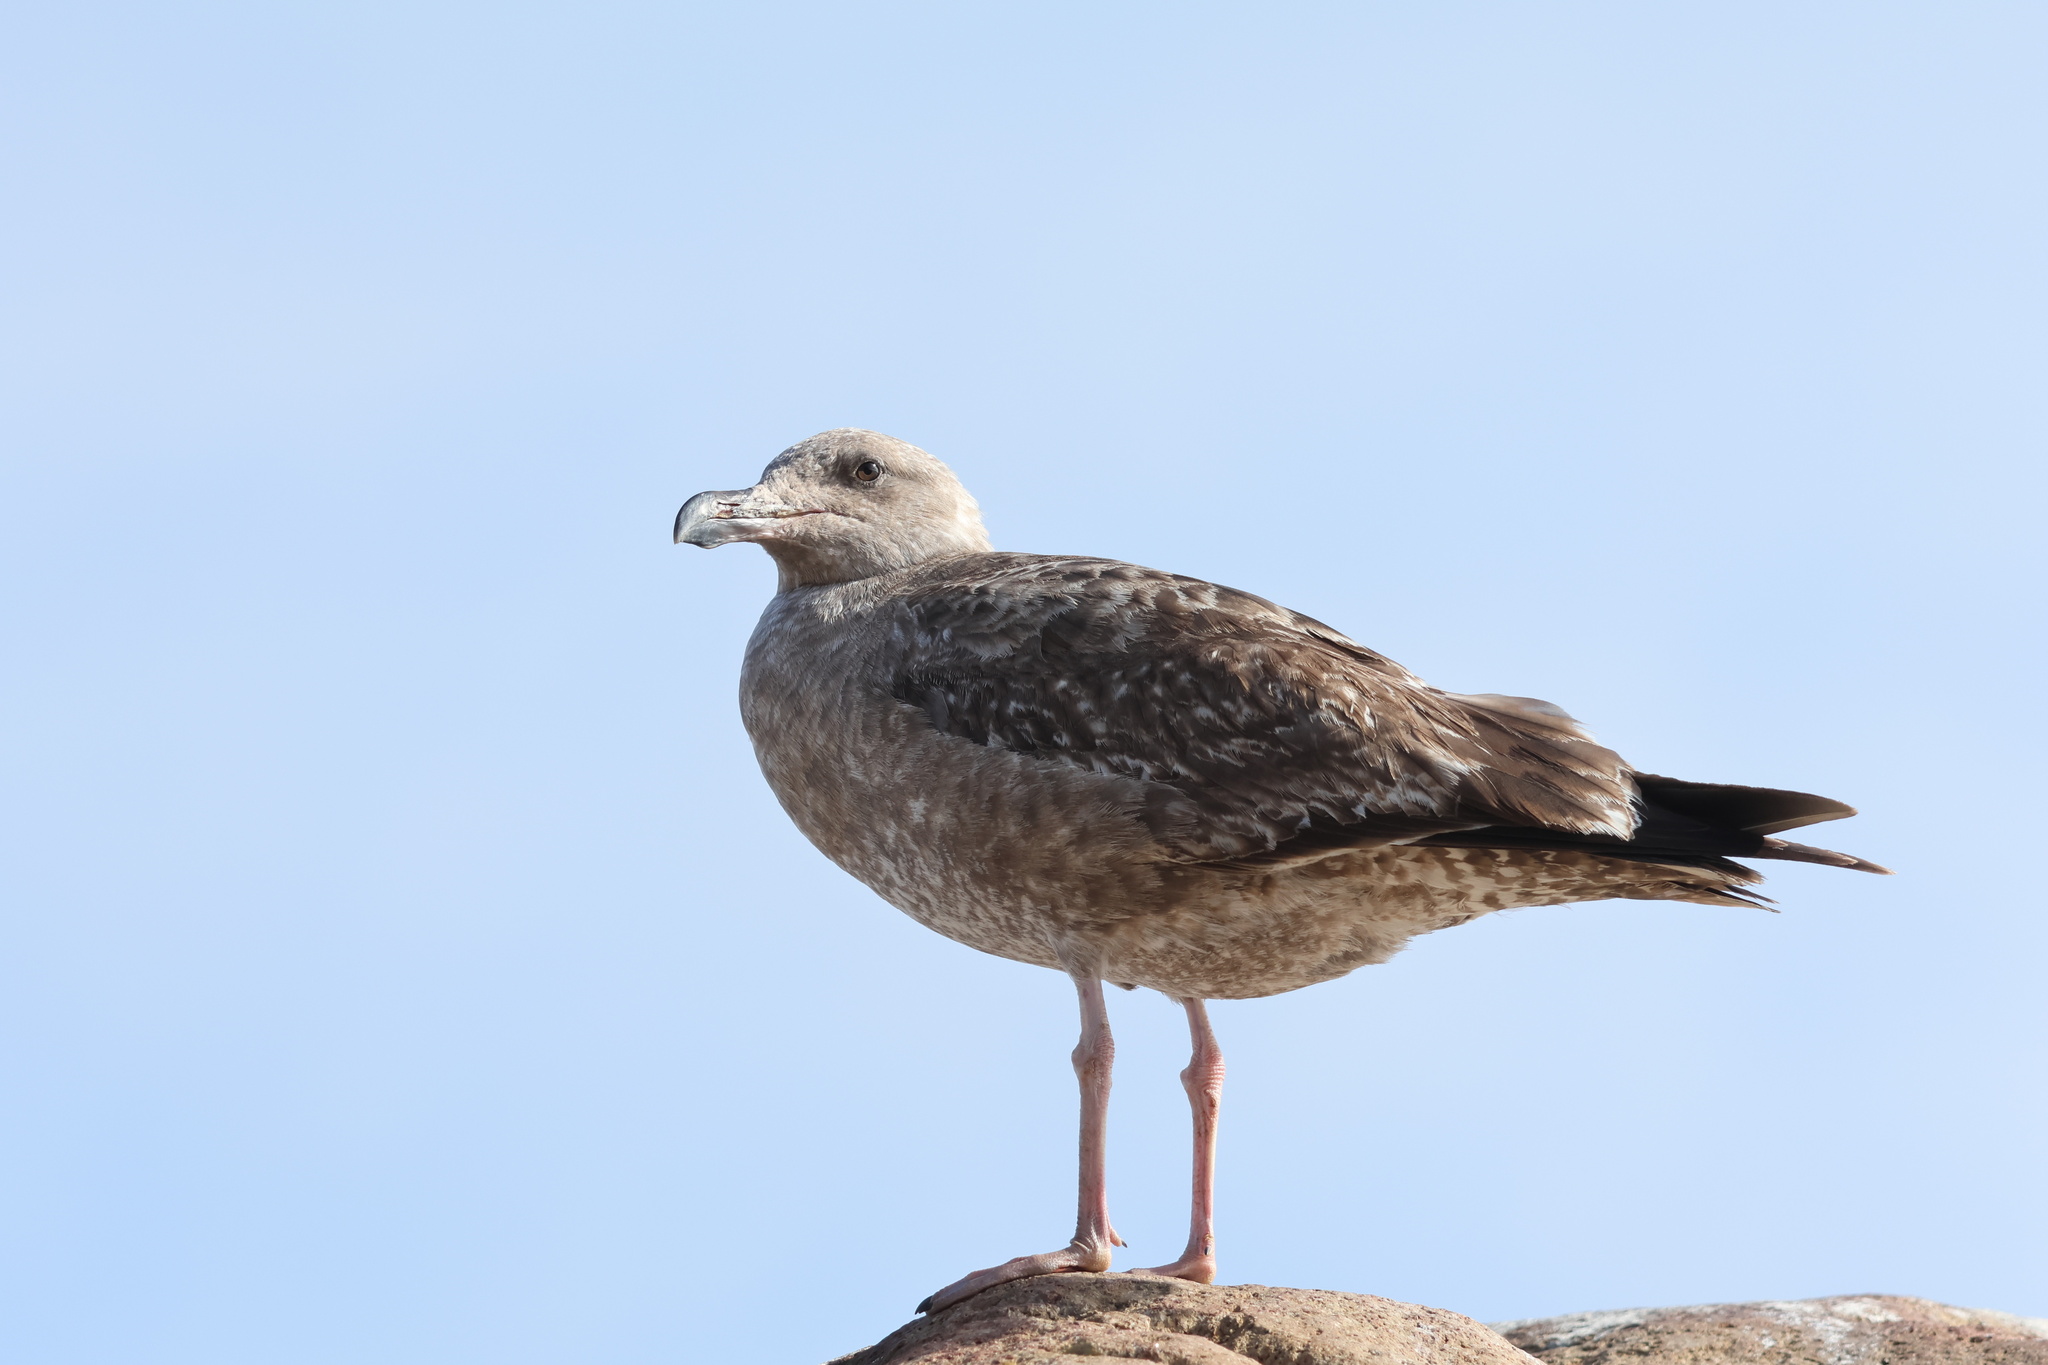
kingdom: Animalia
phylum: Chordata
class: Aves
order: Charadriiformes
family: Laridae
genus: Larus
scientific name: Larus occidentalis
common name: Western gull
